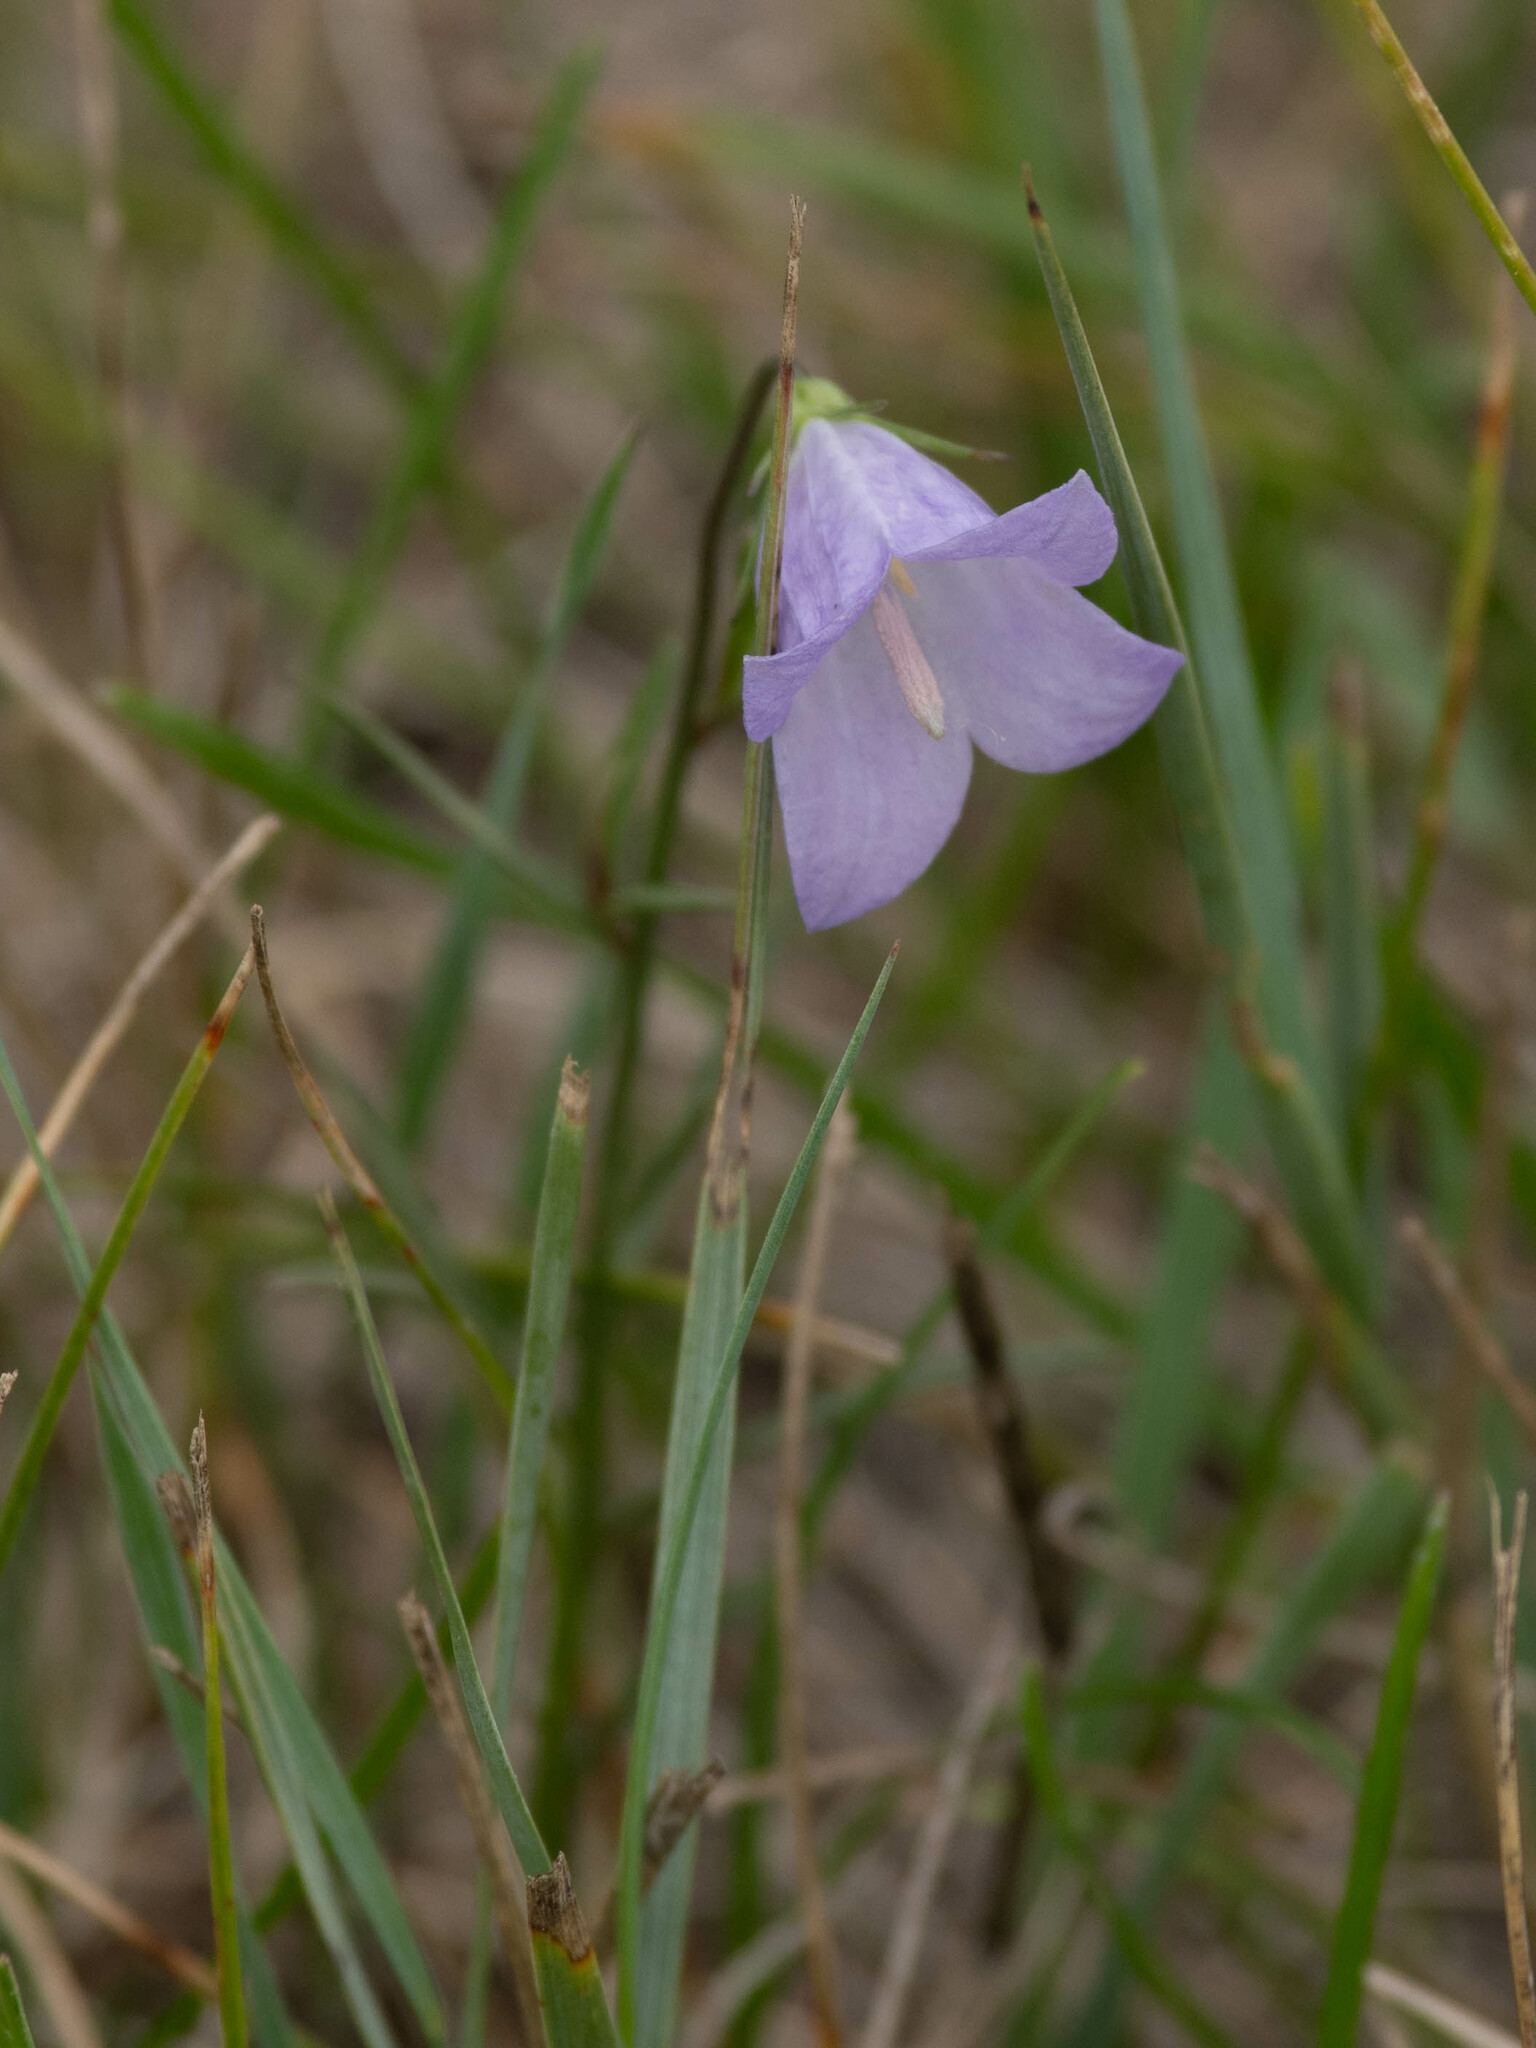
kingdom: Plantae
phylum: Tracheophyta
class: Magnoliopsida
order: Asterales
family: Campanulaceae
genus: Campanula
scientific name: Campanula alaskana
